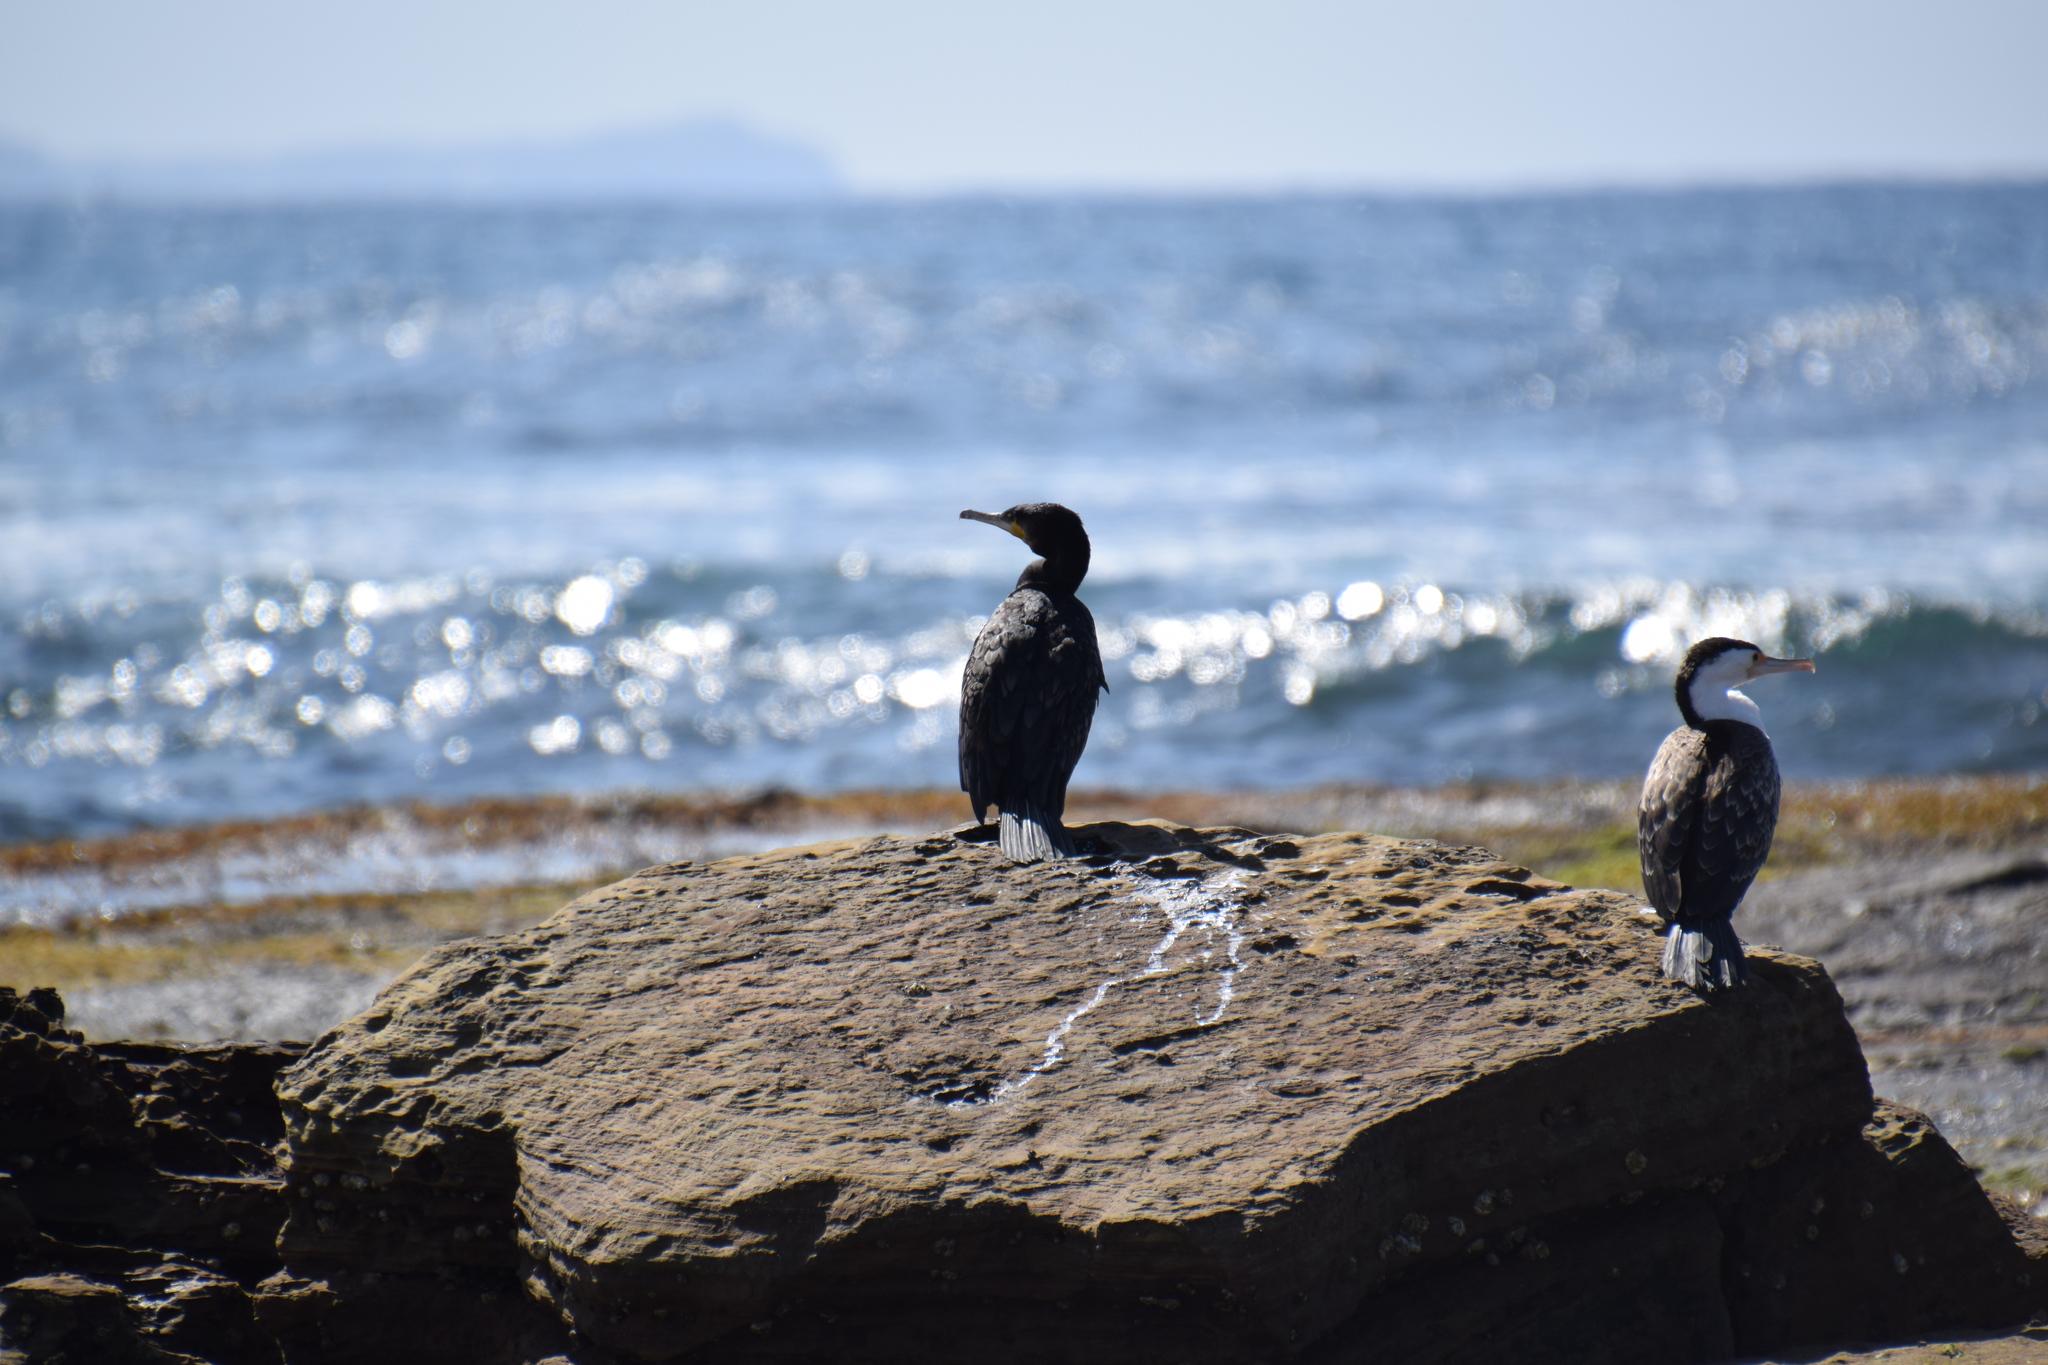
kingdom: Animalia
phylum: Chordata
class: Aves
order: Suliformes
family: Phalacrocoracidae
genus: Phalacrocorax
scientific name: Phalacrocorax carbo
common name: Great cormorant
